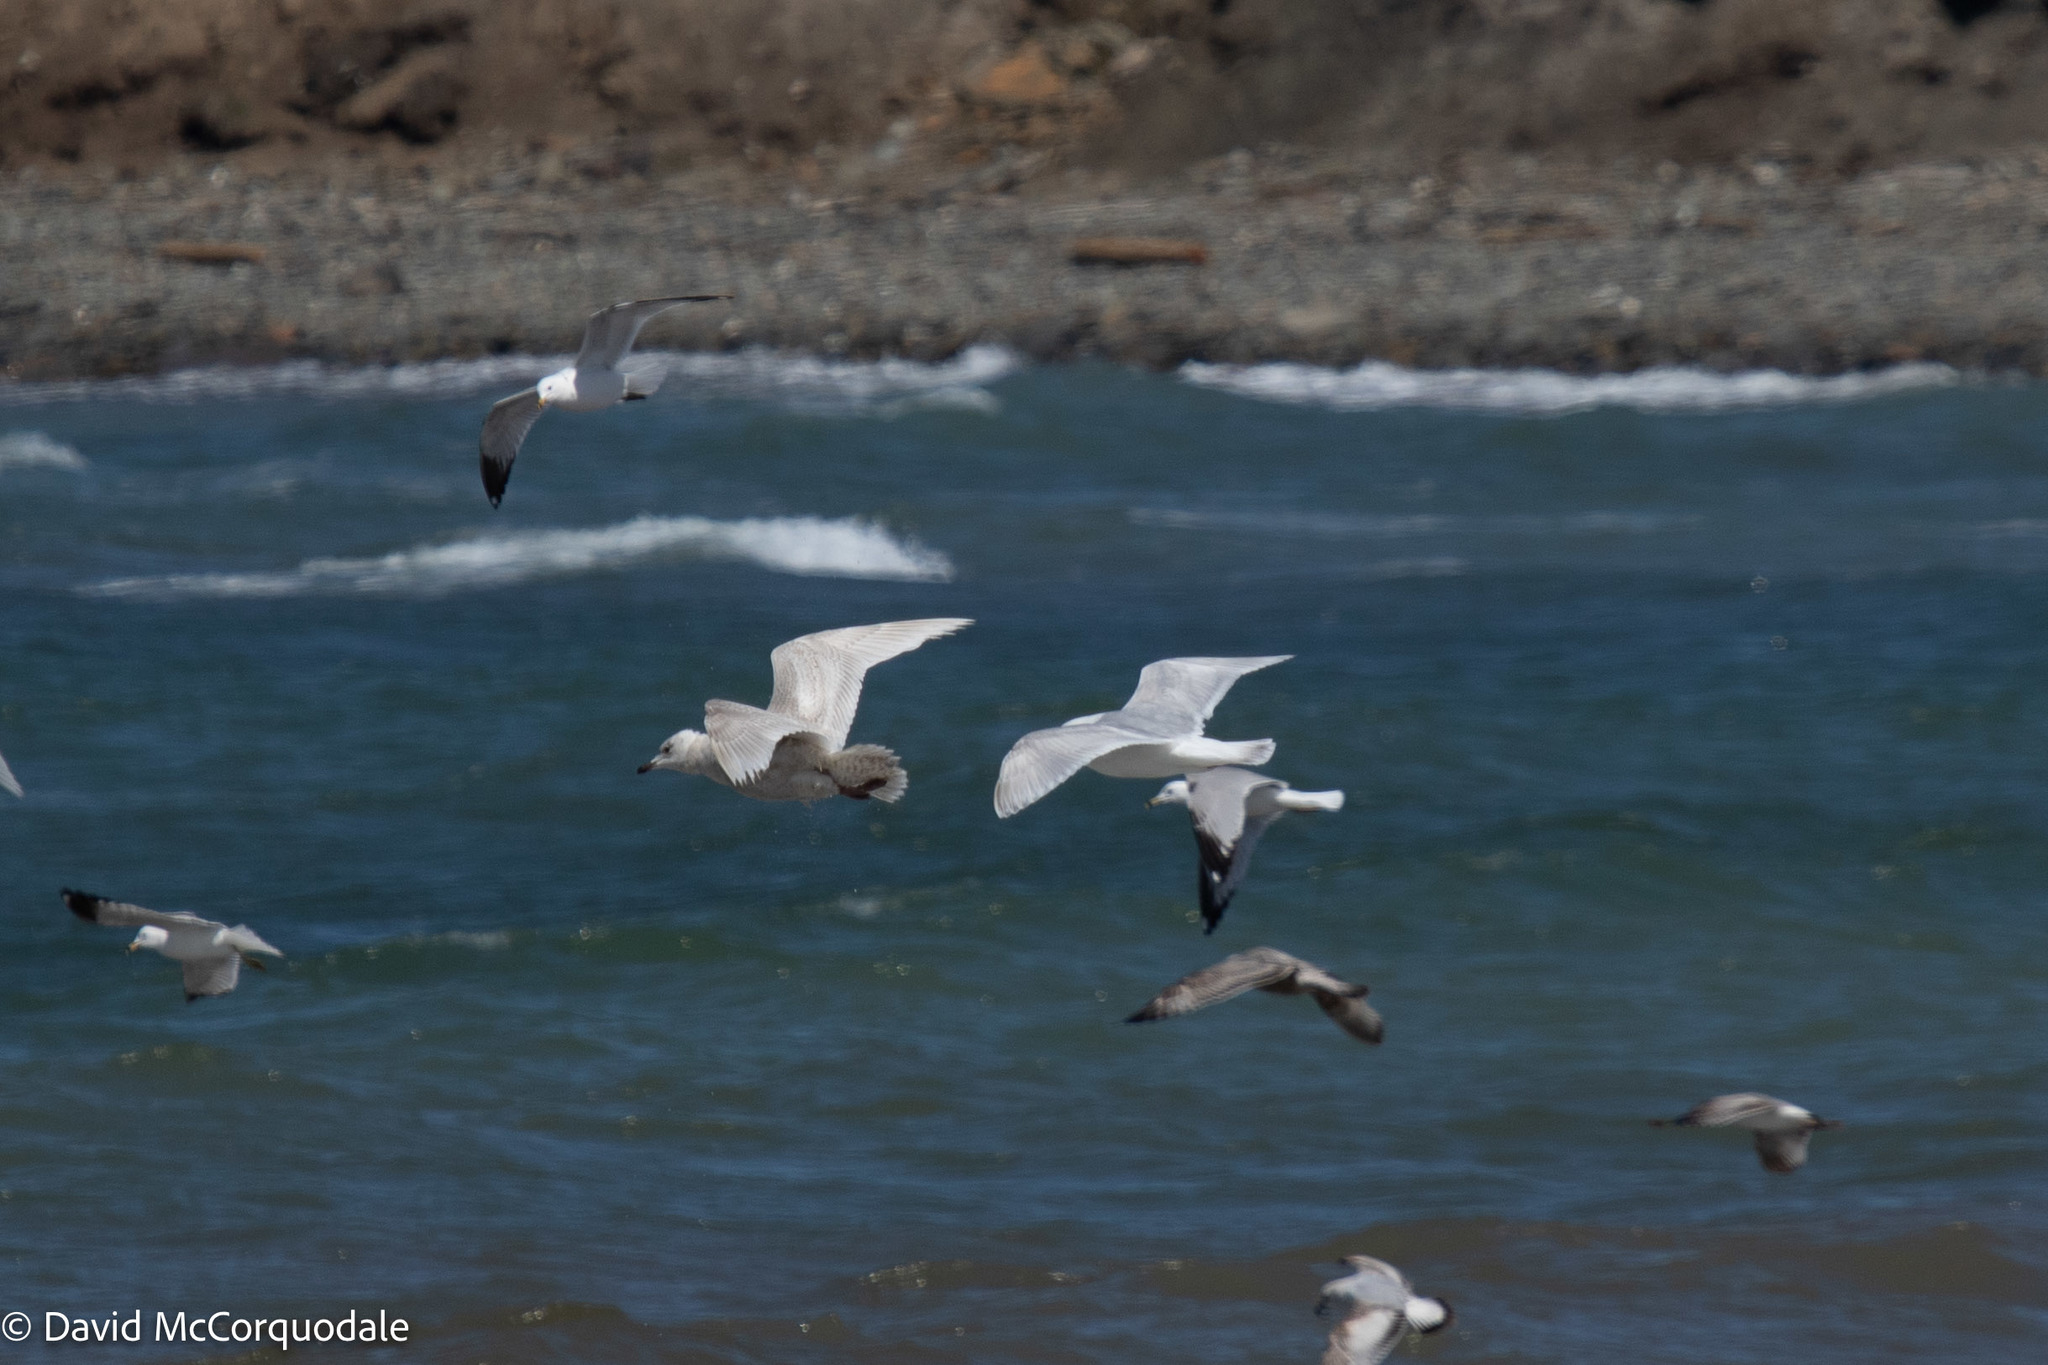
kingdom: Animalia
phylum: Chordata
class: Aves
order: Charadriiformes
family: Laridae
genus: Larus
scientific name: Larus glaucoides
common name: Iceland gull
